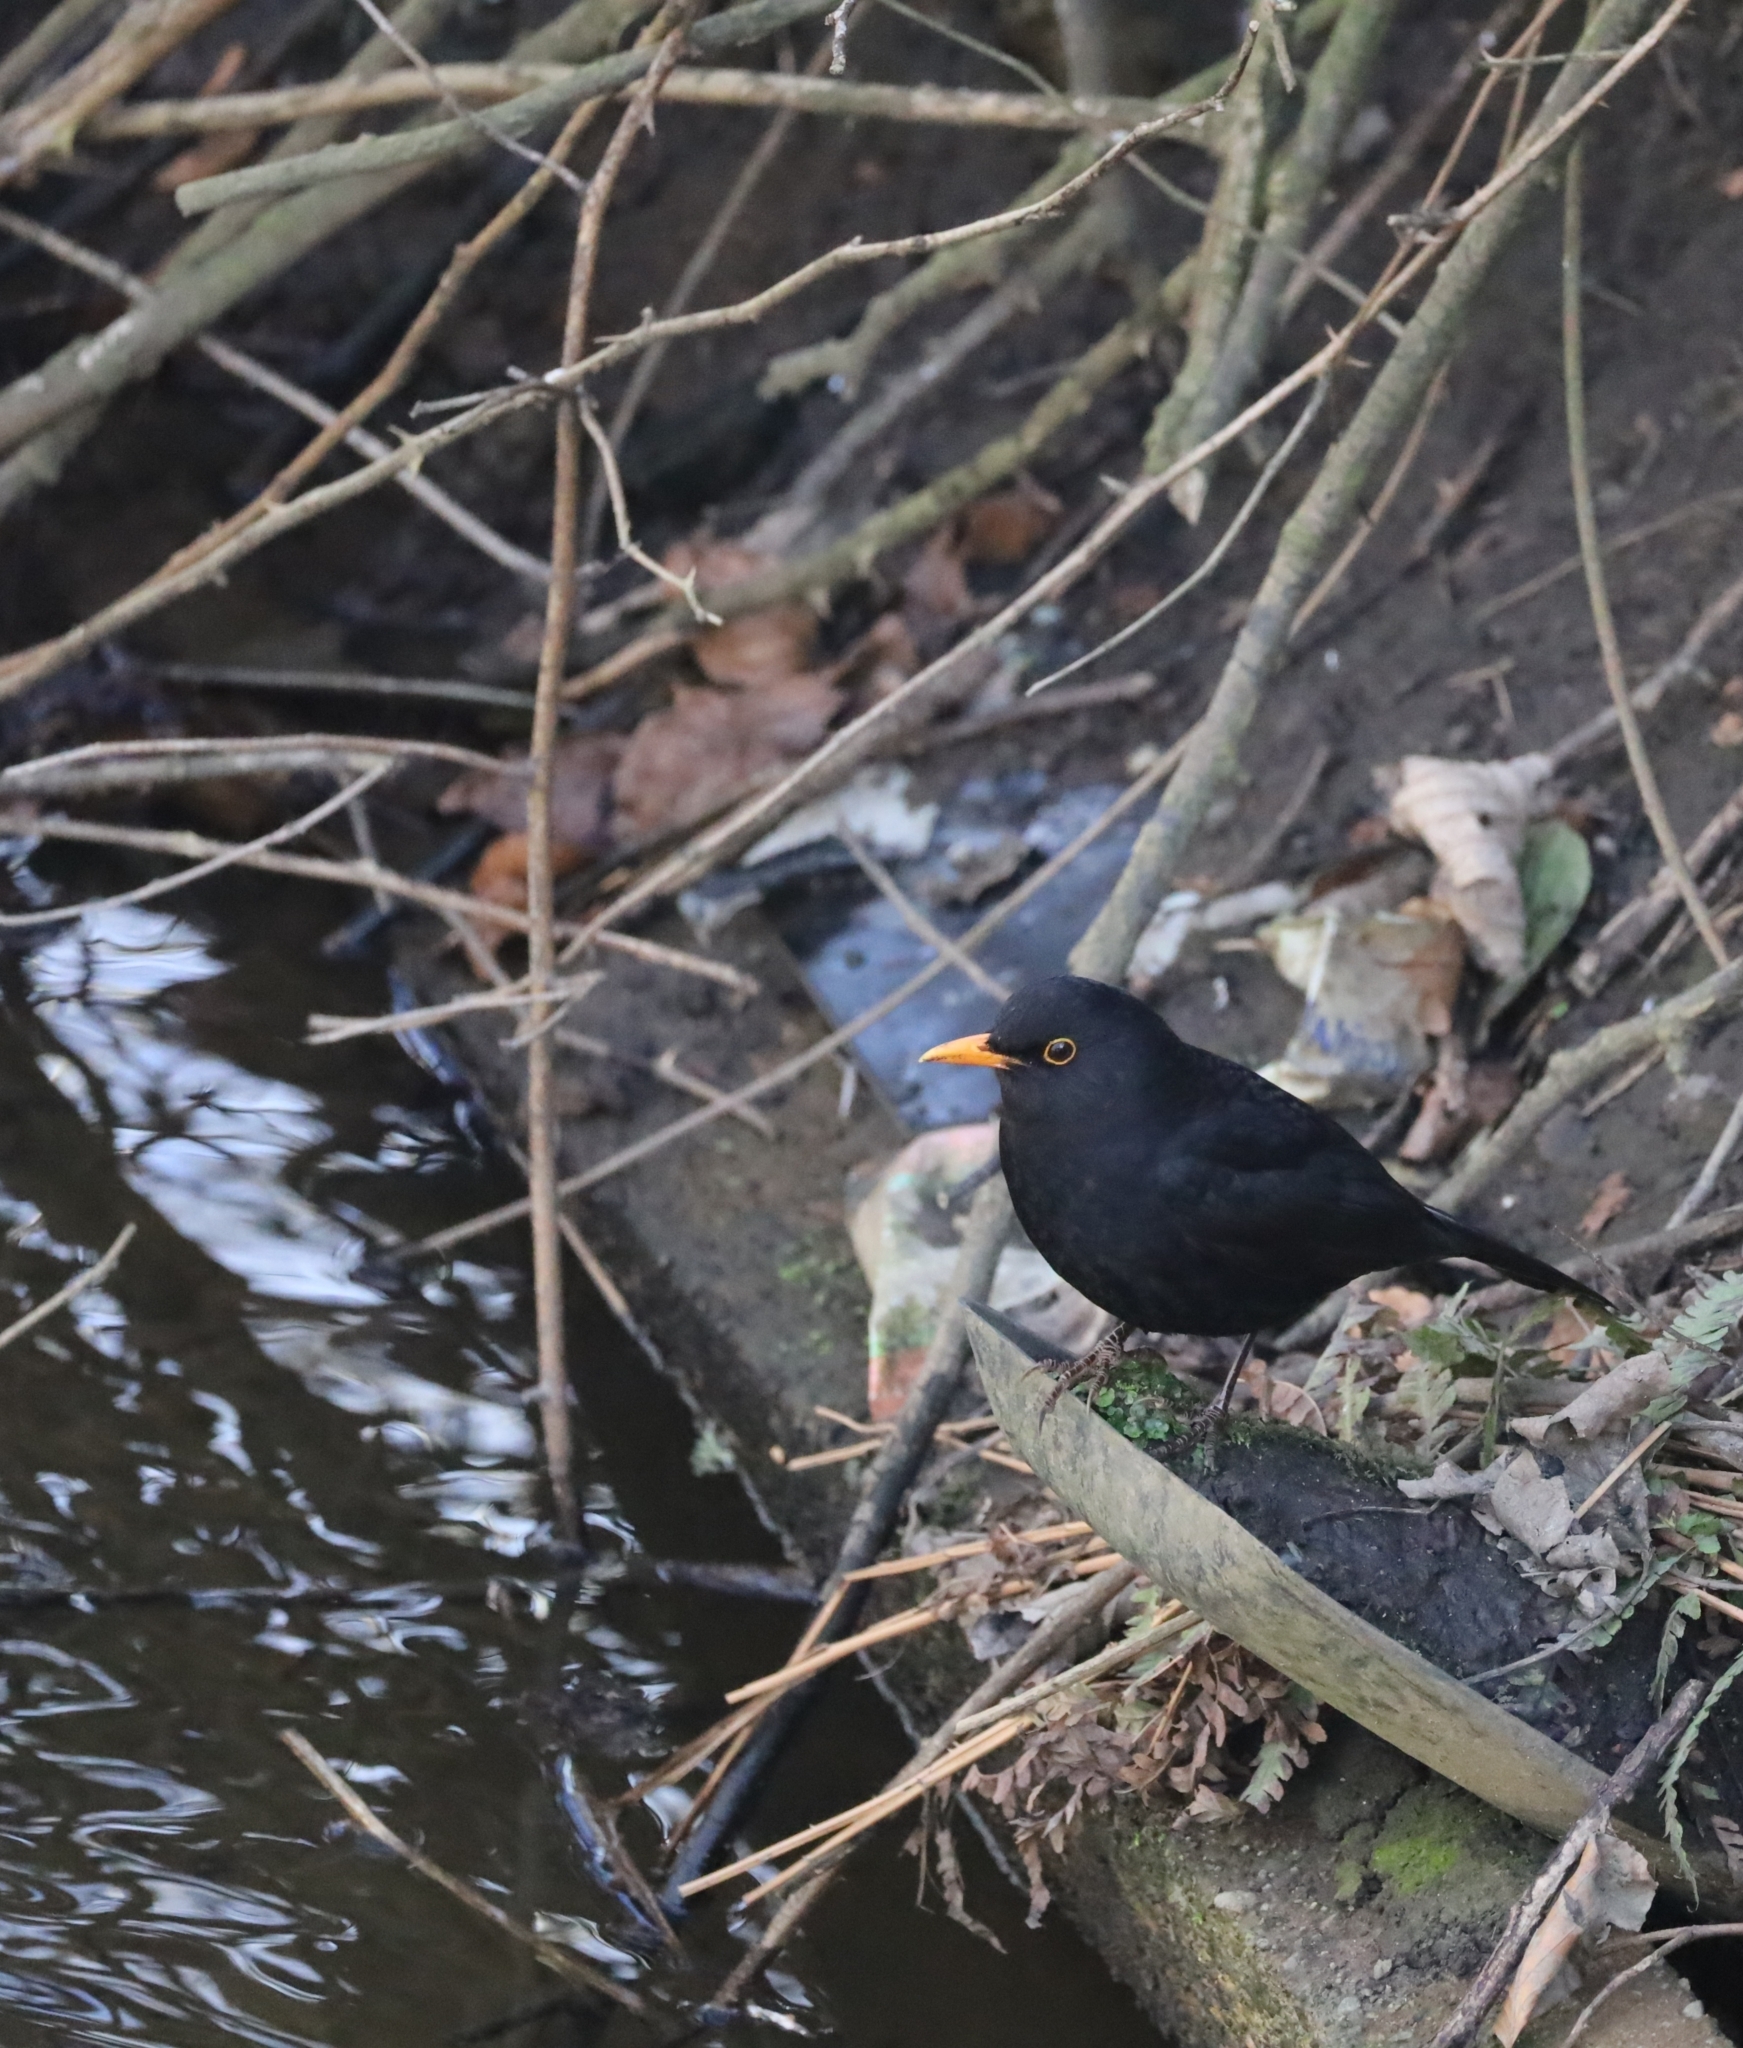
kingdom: Animalia
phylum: Chordata
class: Aves
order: Passeriformes
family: Turdidae
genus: Turdus
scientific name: Turdus merula
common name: Common blackbird
